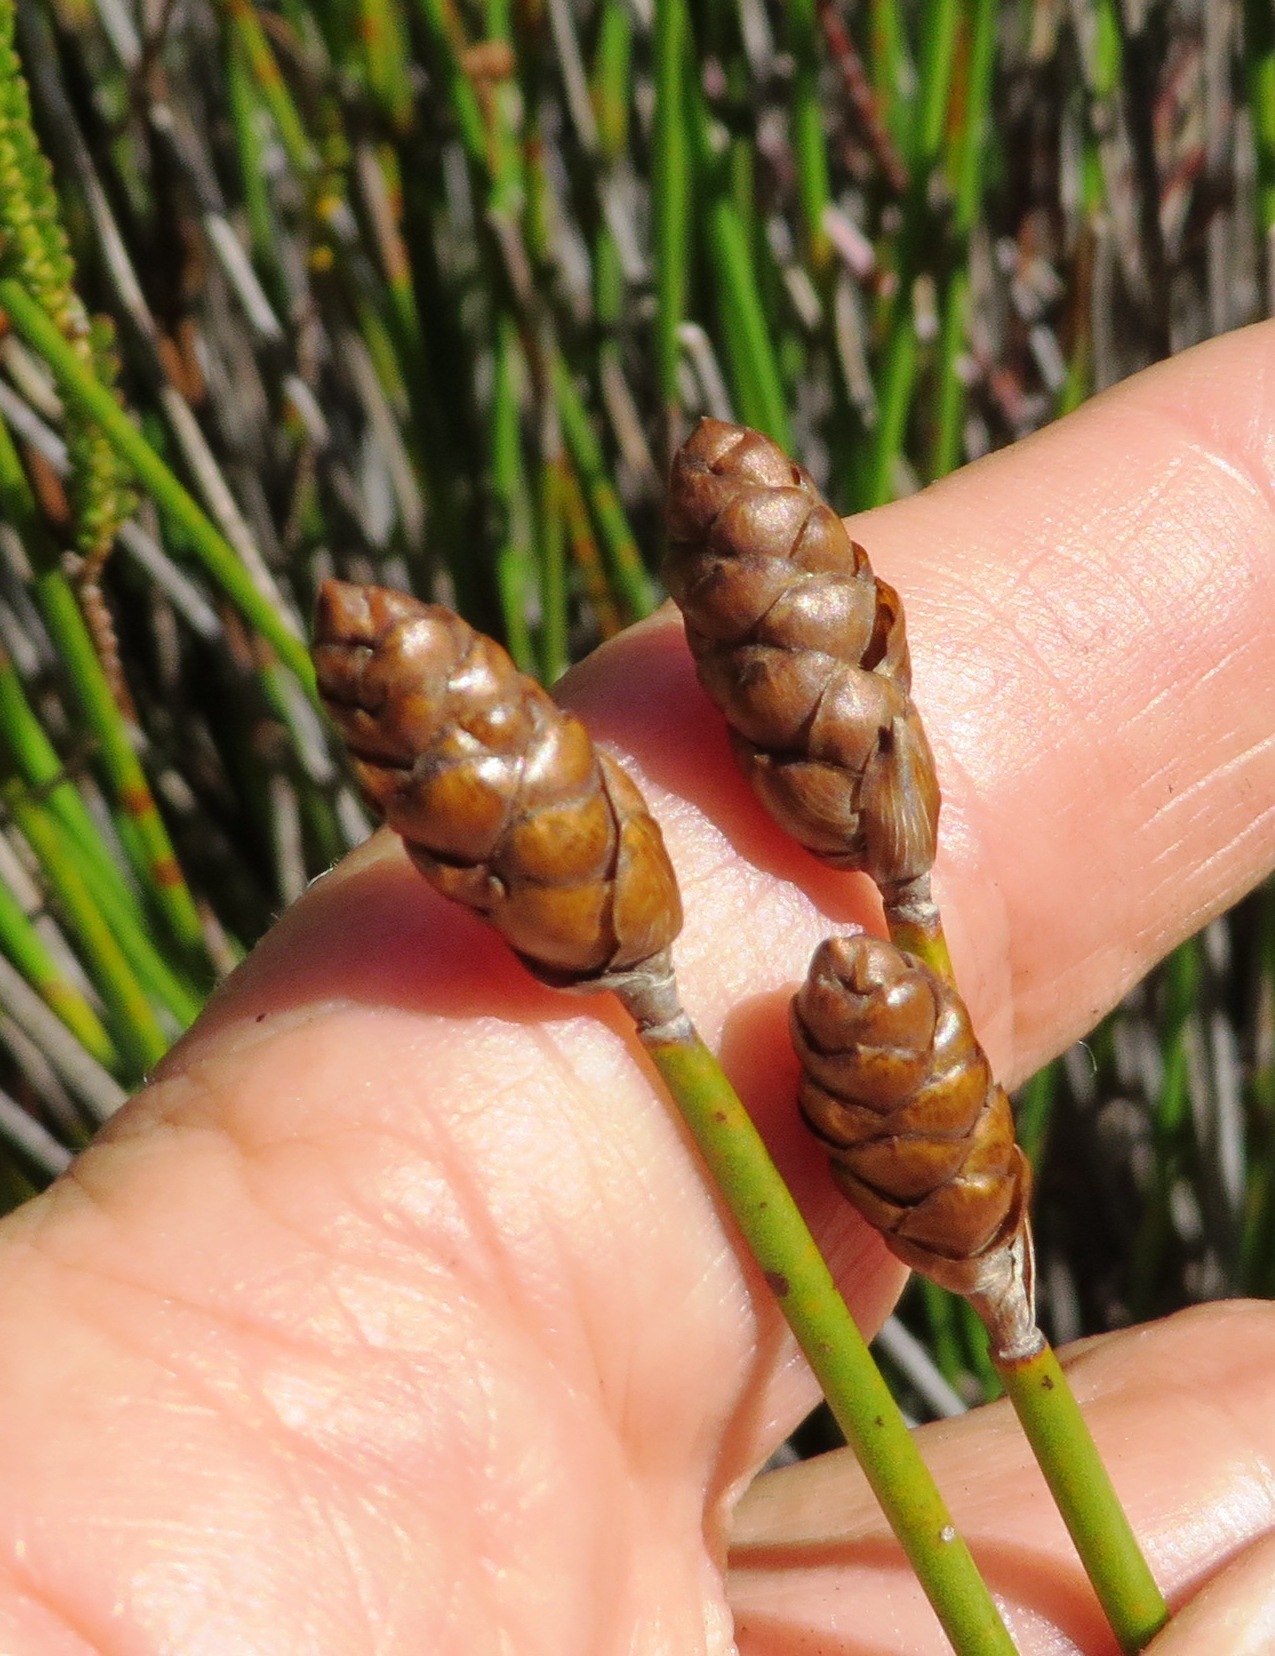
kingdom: Plantae
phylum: Tracheophyta
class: Liliopsida
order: Poales
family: Restionaceae
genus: Nevillea
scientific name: Nevillea obtusissimus
